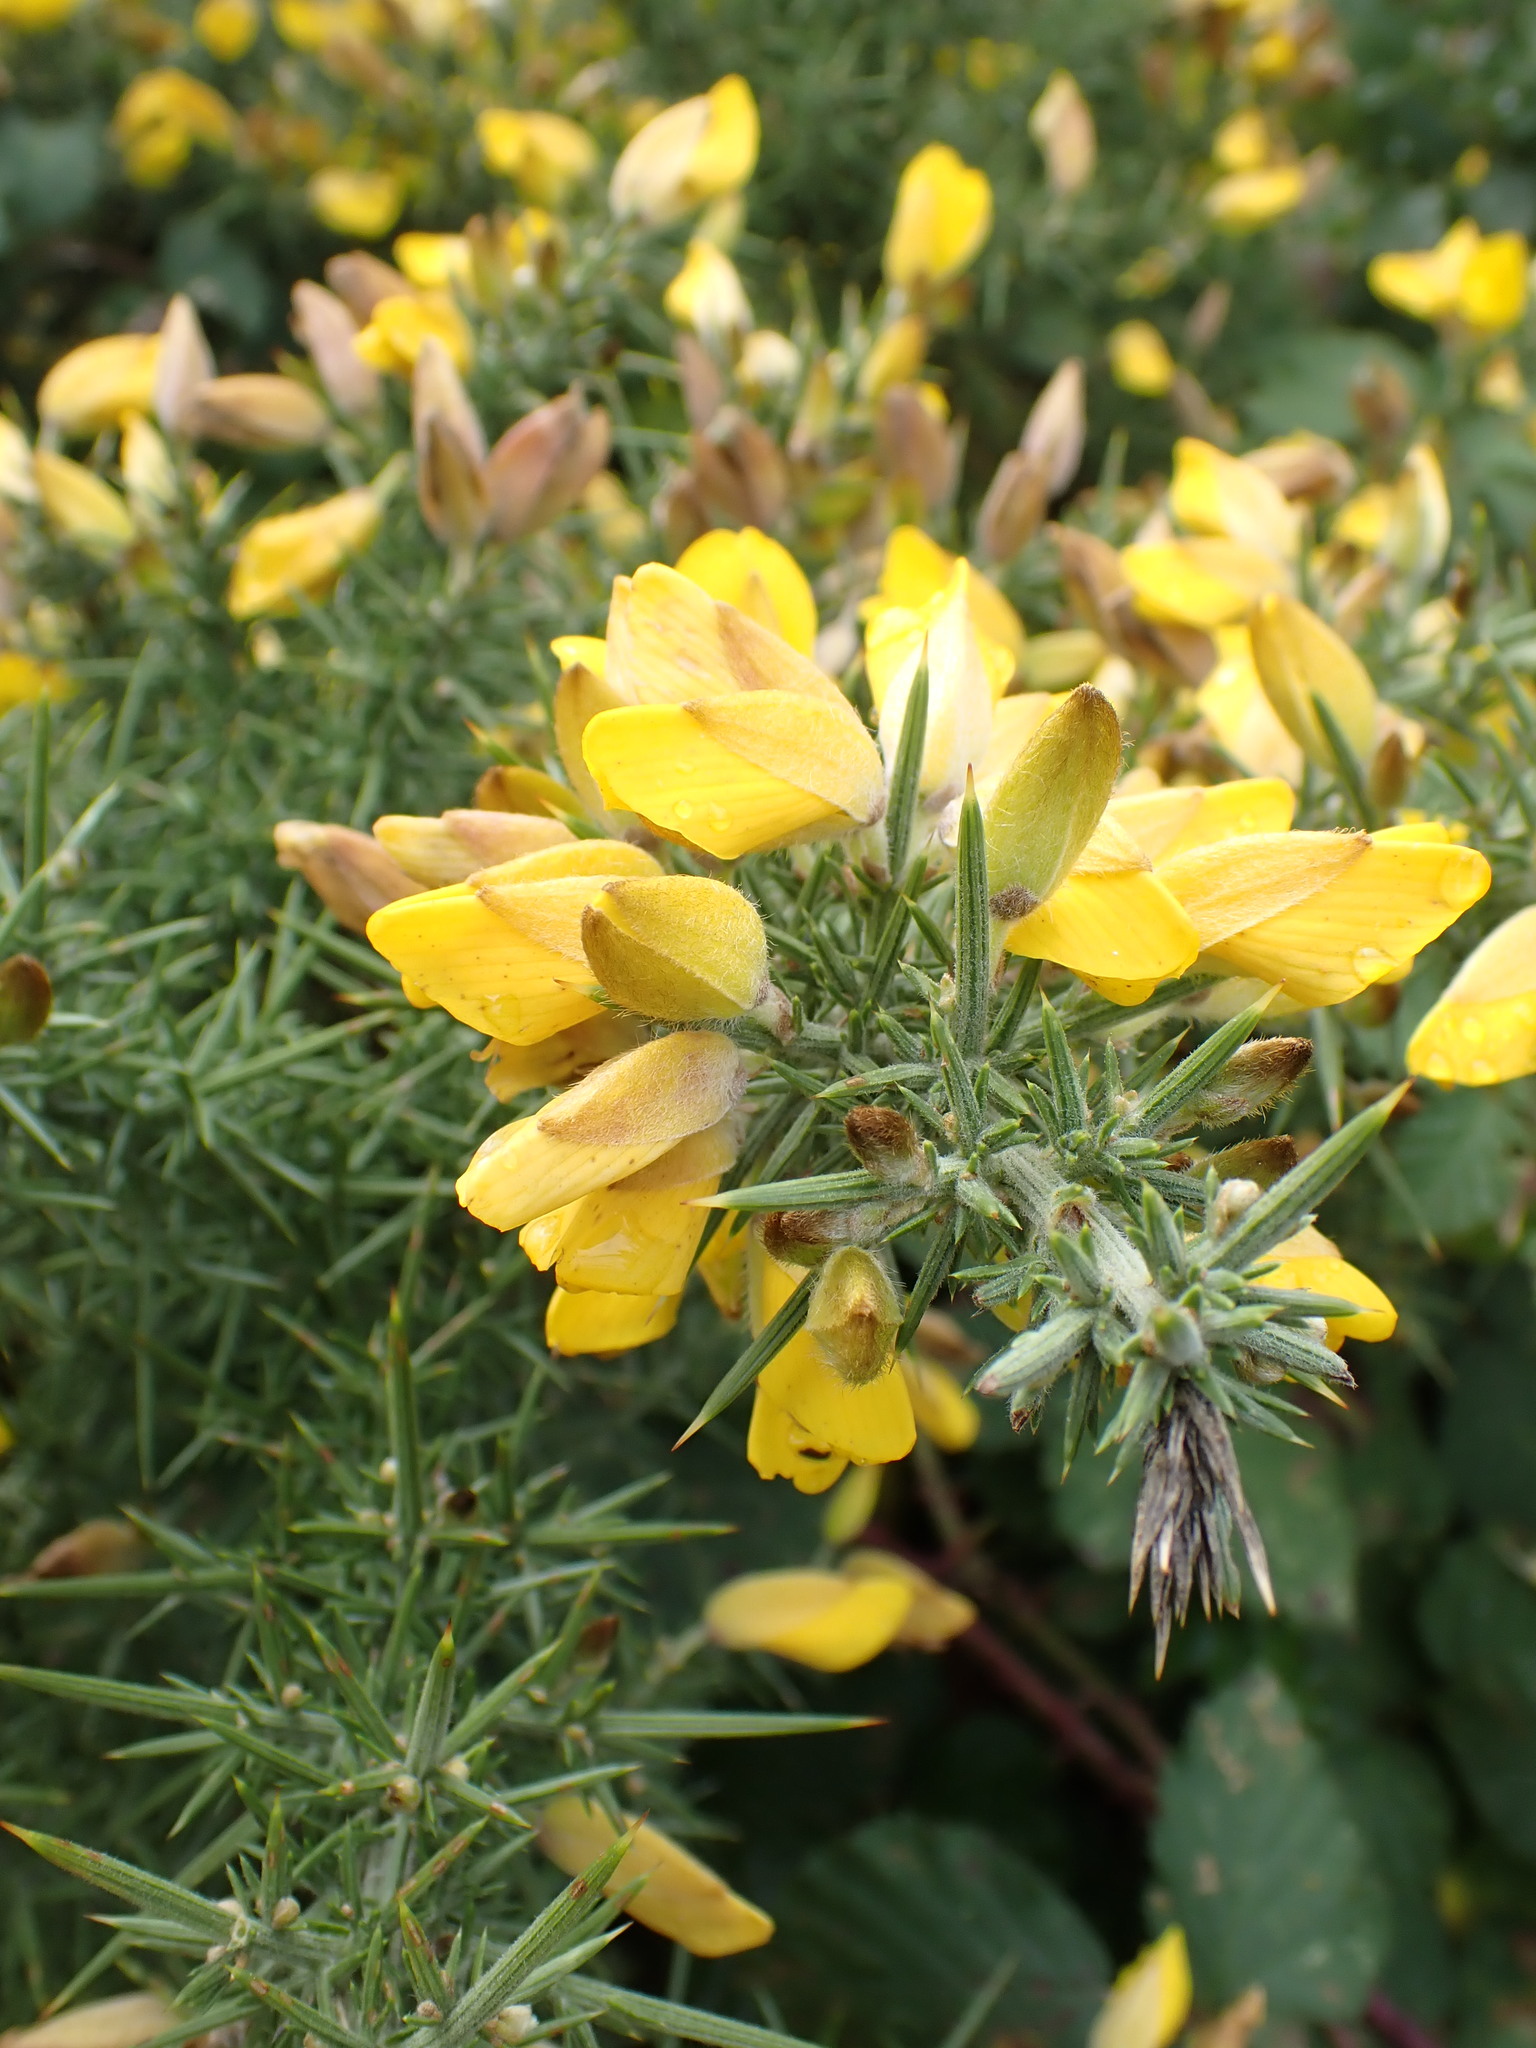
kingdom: Plantae
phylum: Tracheophyta
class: Magnoliopsida
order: Fabales
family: Fabaceae
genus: Ulex
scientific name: Ulex europaeus
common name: Common gorse
